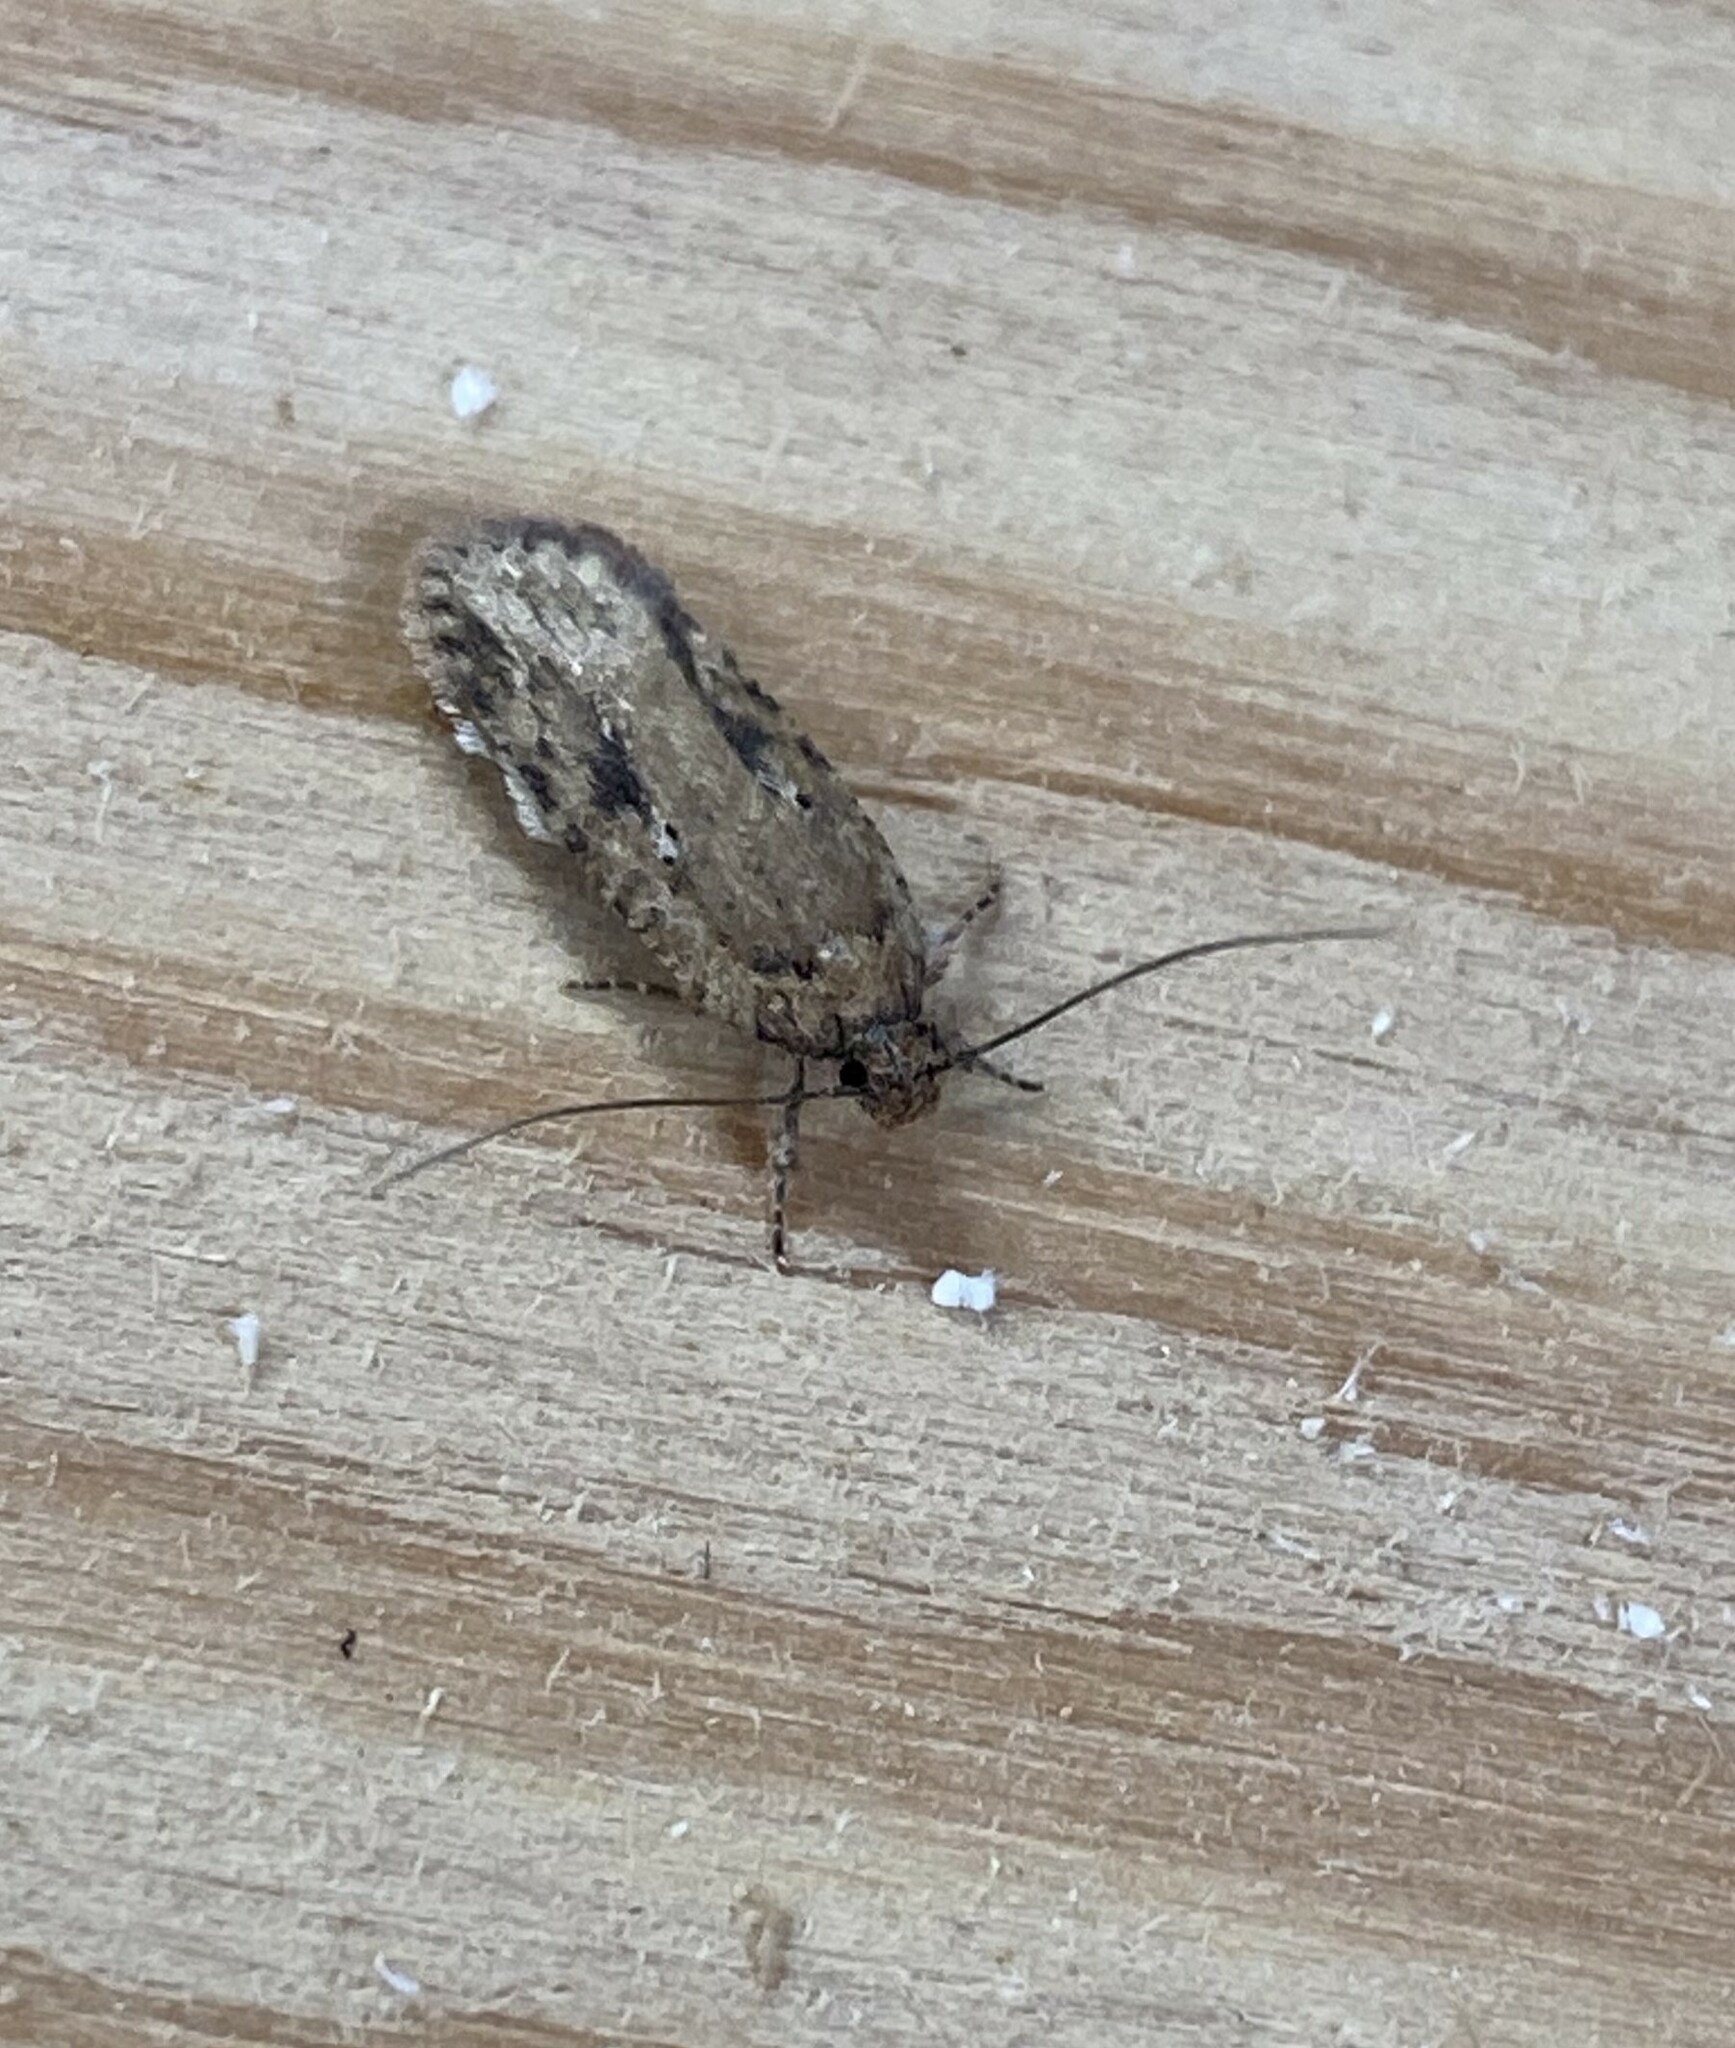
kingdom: Animalia
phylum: Arthropoda
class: Insecta
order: Lepidoptera
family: Depressariidae
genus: Agonopterix
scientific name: Agonopterix pulvipennella
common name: Goldenrod leafffolder
